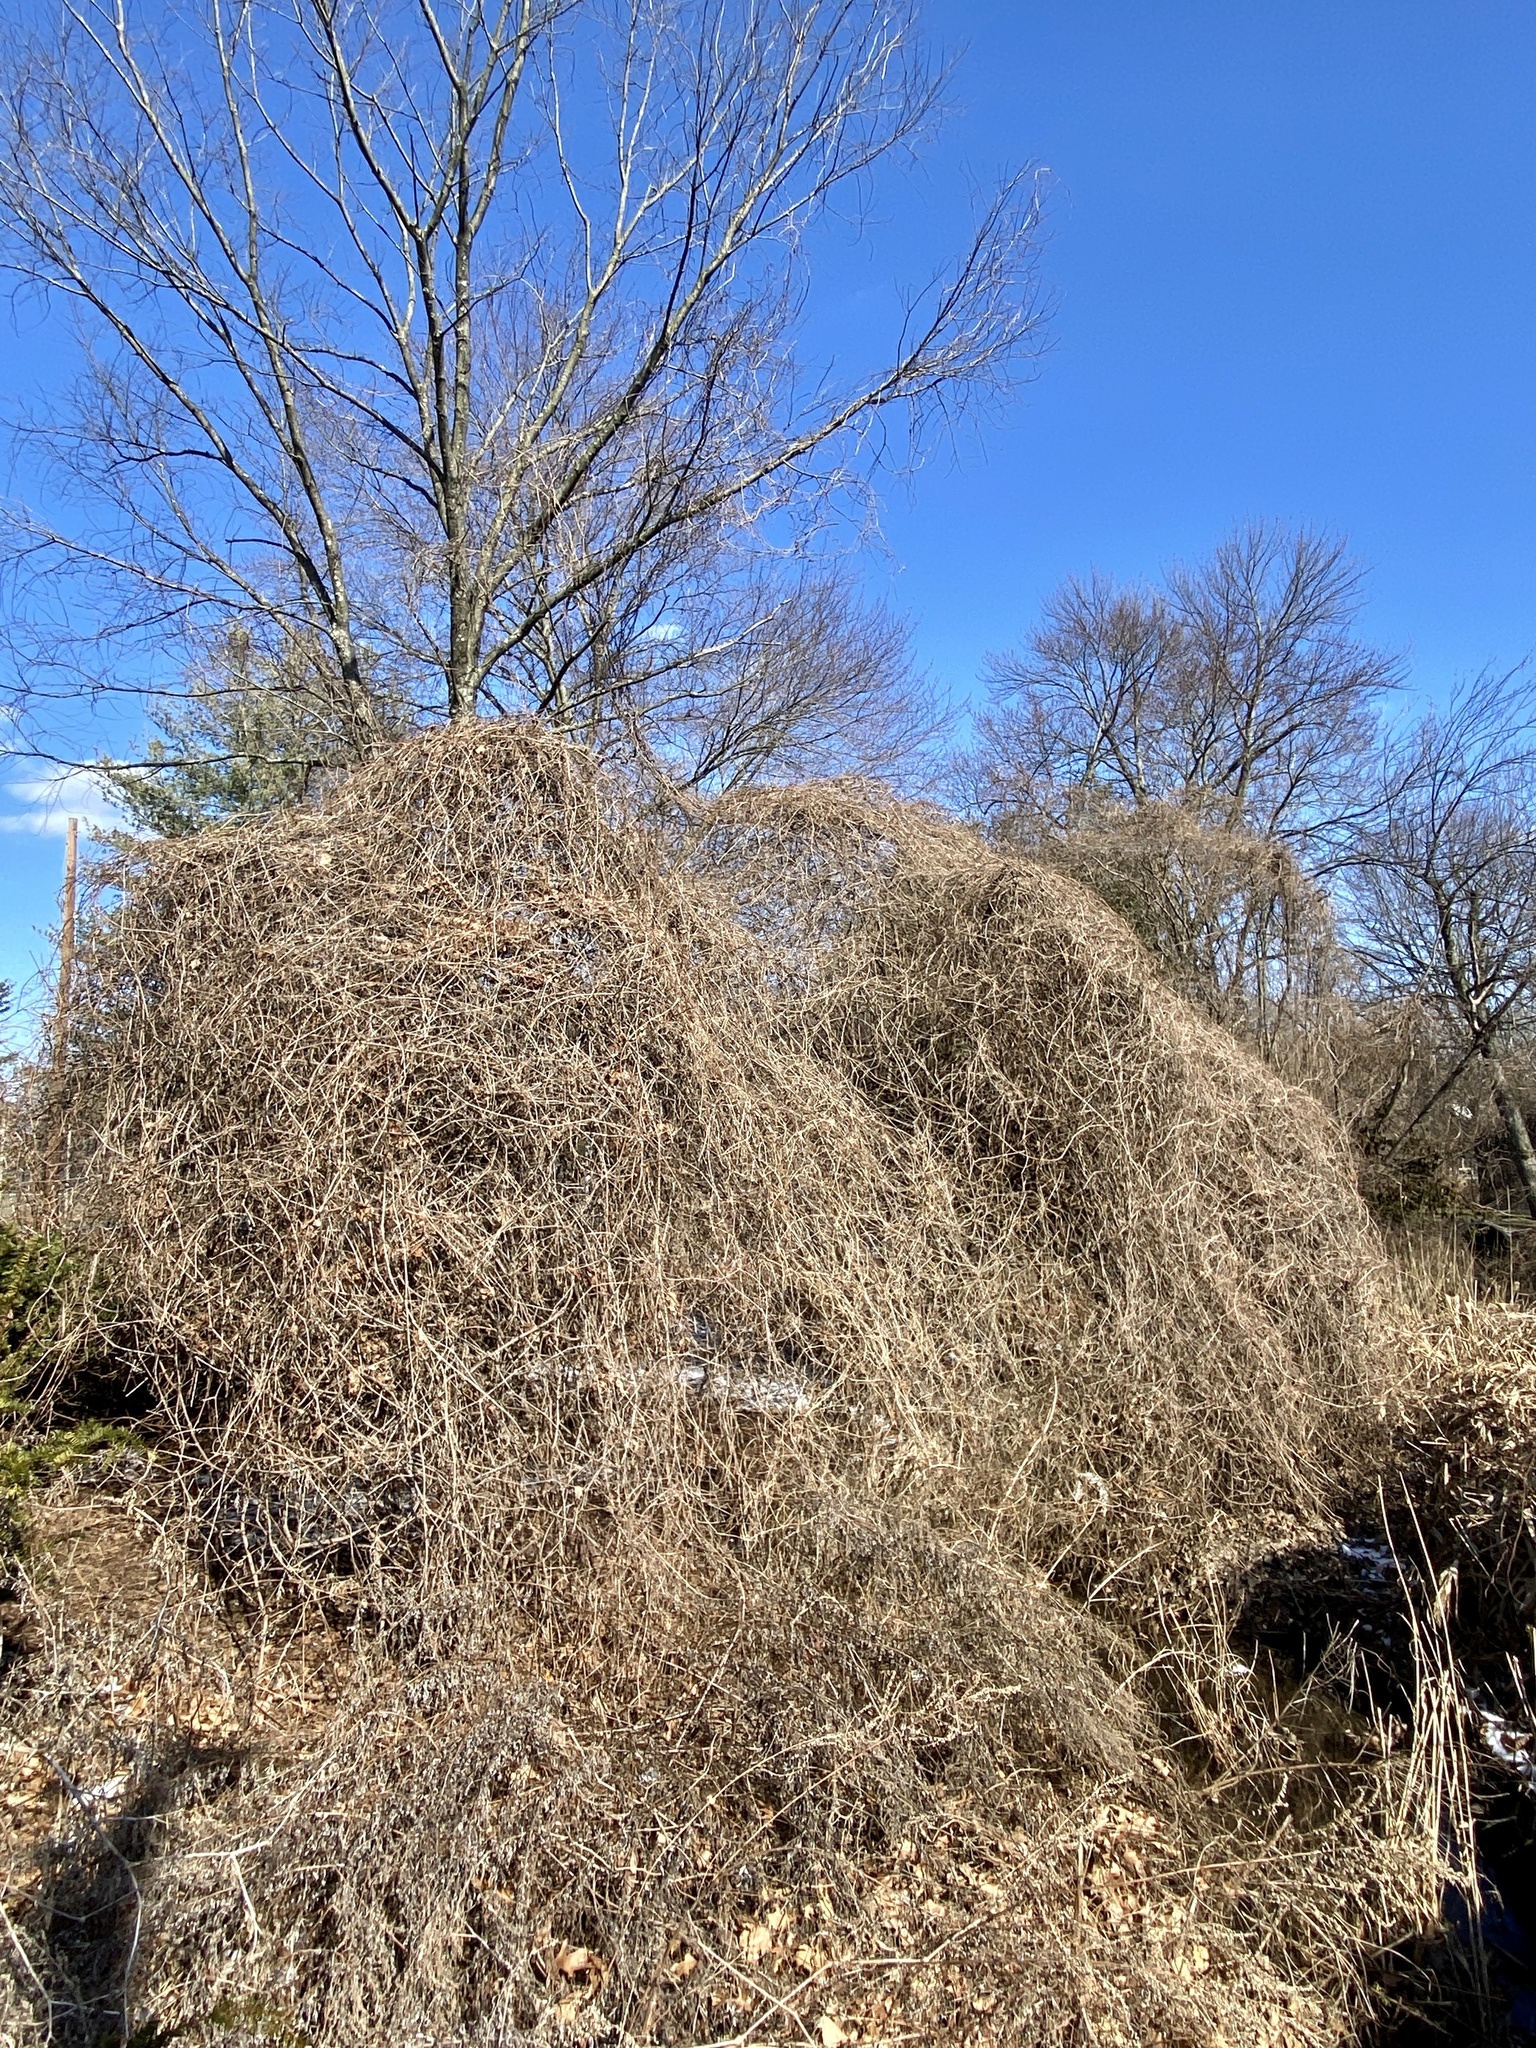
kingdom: Plantae
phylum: Tracheophyta
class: Magnoliopsida
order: Vitales
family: Vitaceae
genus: Ampelopsis
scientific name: Ampelopsis glandulosa
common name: Amur peppervine
